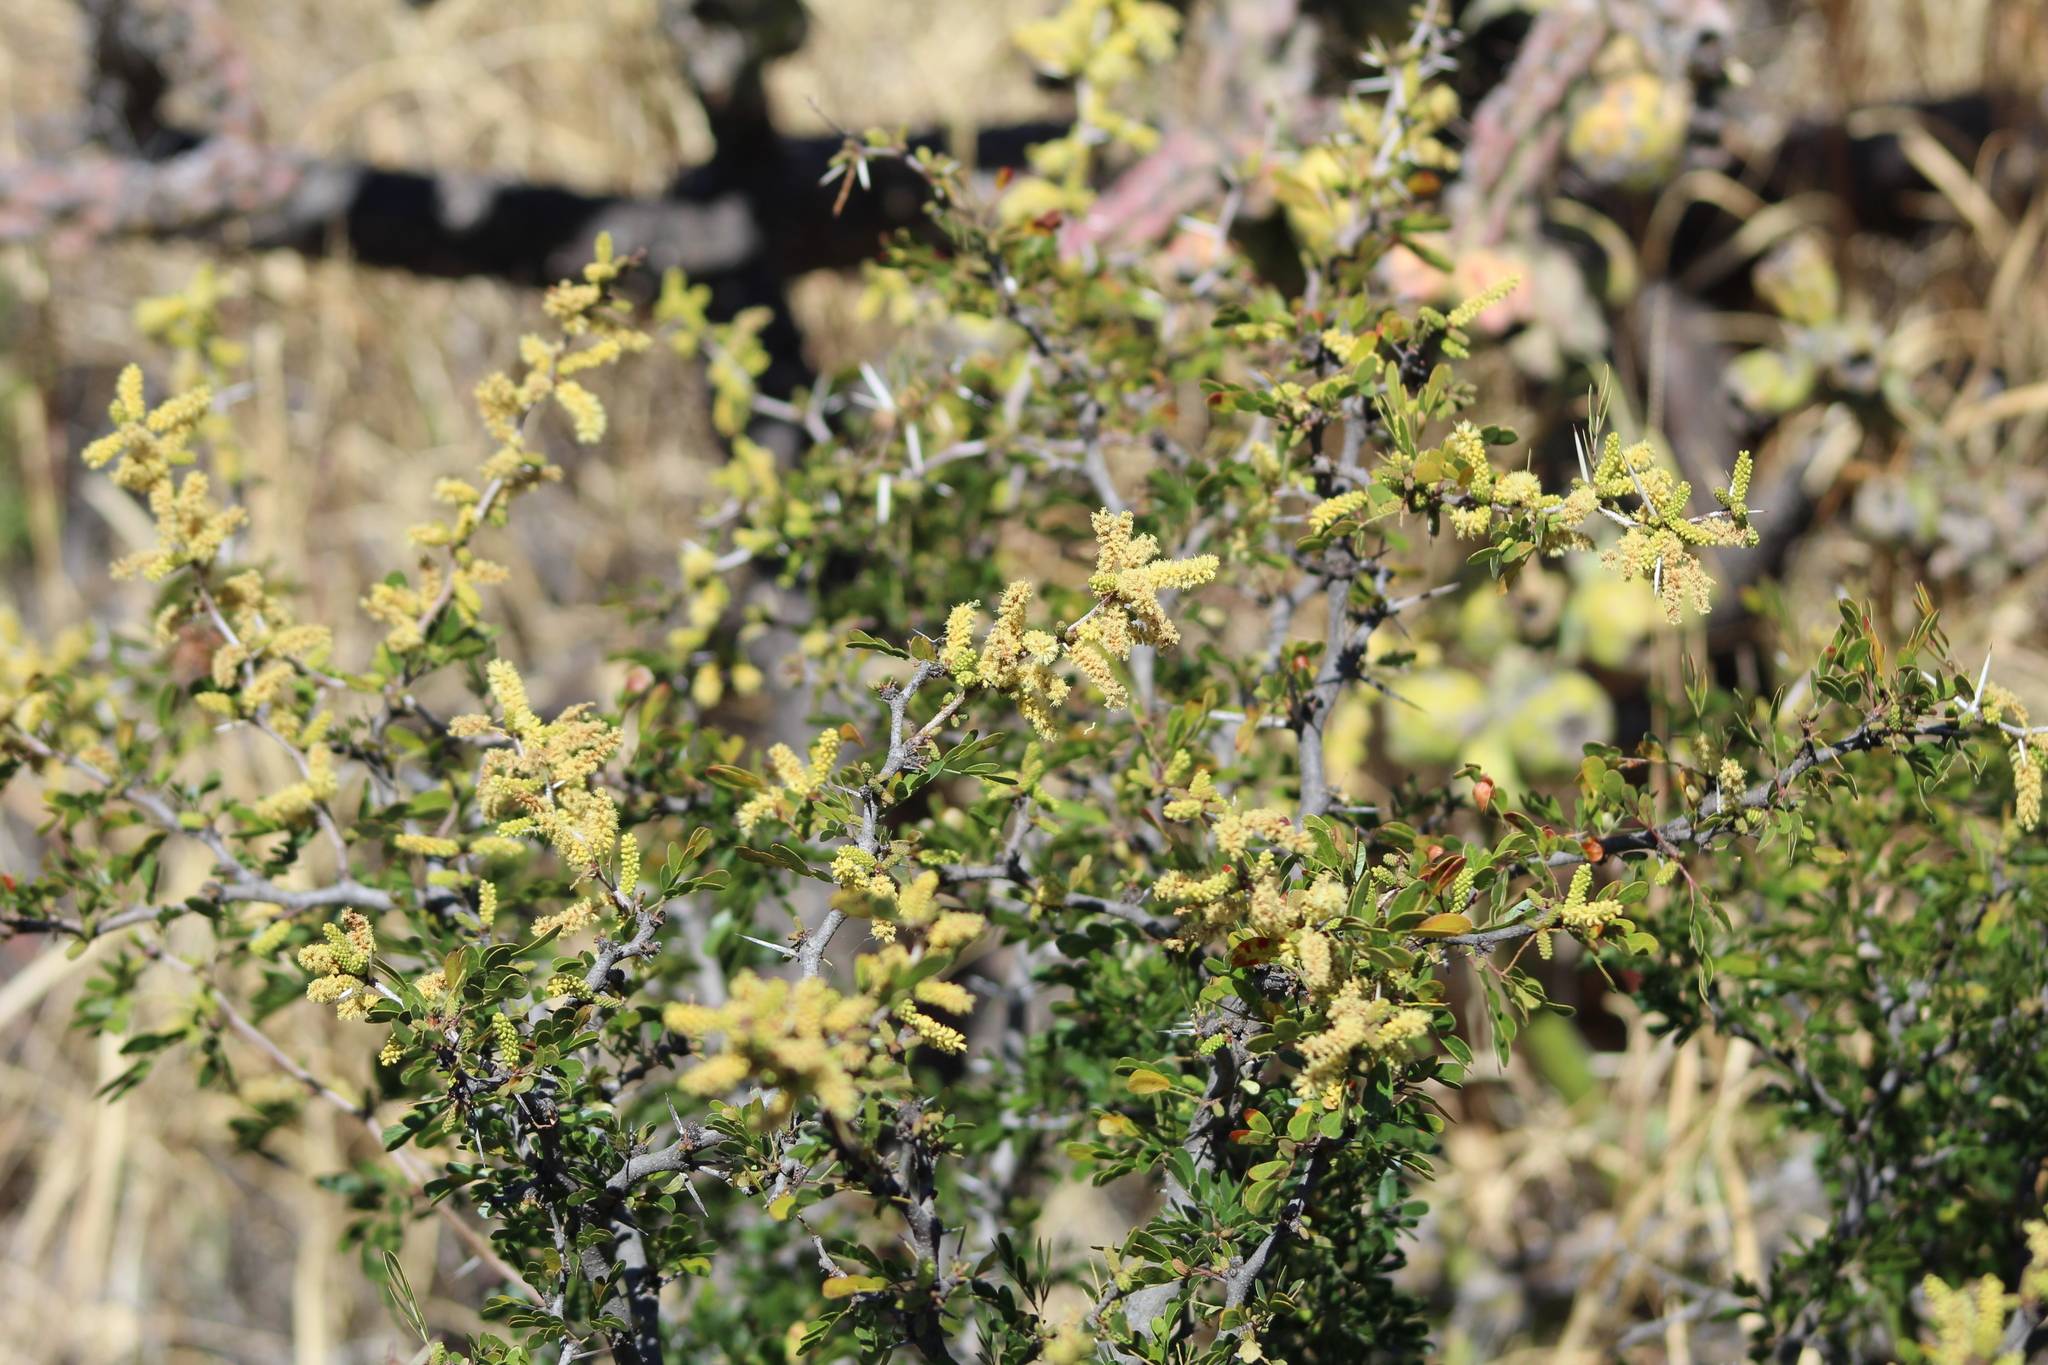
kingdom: Plantae
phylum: Tracheophyta
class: Magnoliopsida
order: Fabales
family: Fabaceae
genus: Vachellia
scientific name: Vachellia rigidula
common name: Blackbrush
